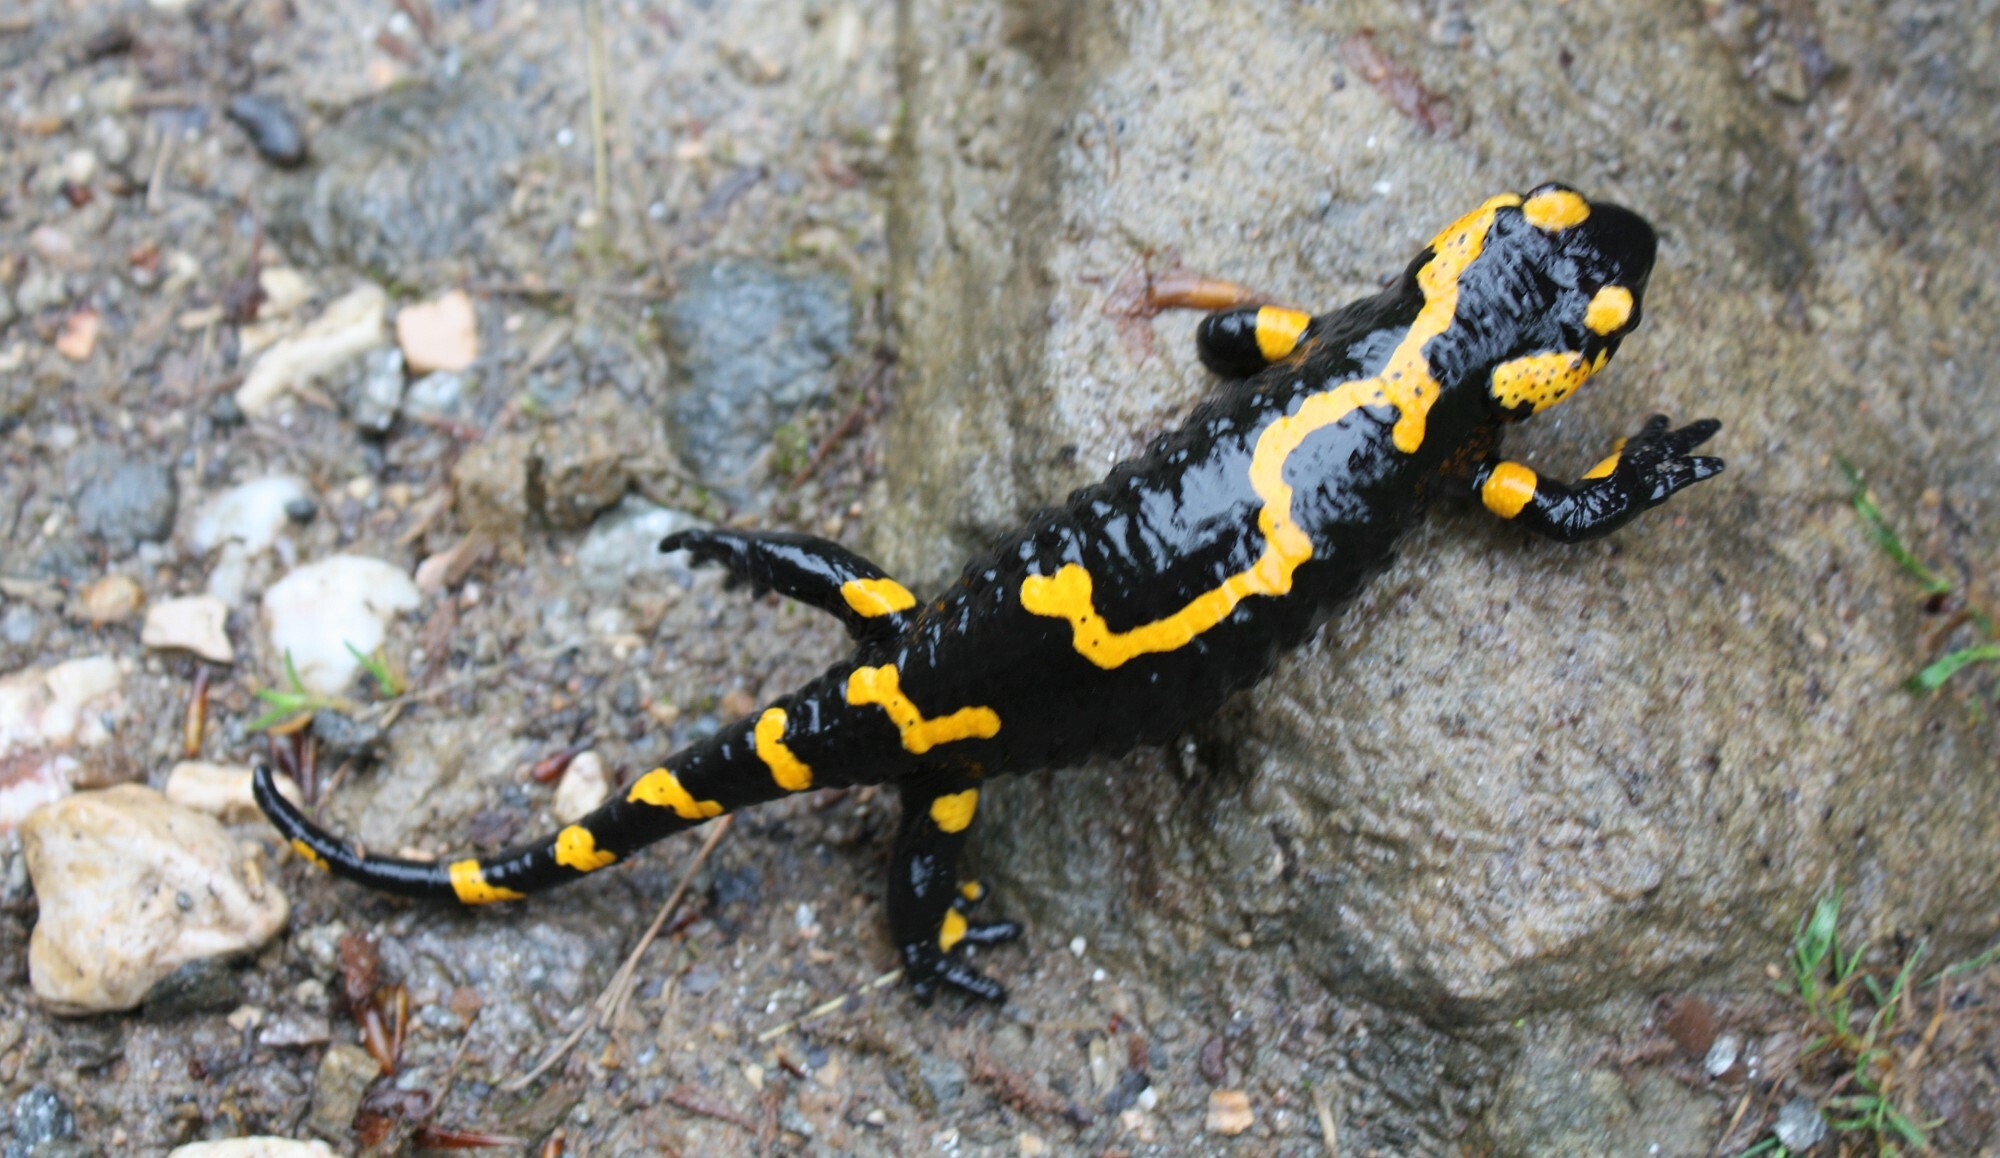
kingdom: Animalia
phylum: Chordata
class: Amphibia
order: Caudata
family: Salamandridae
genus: Salamandra
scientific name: Salamandra salamandra
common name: Fire salamander
